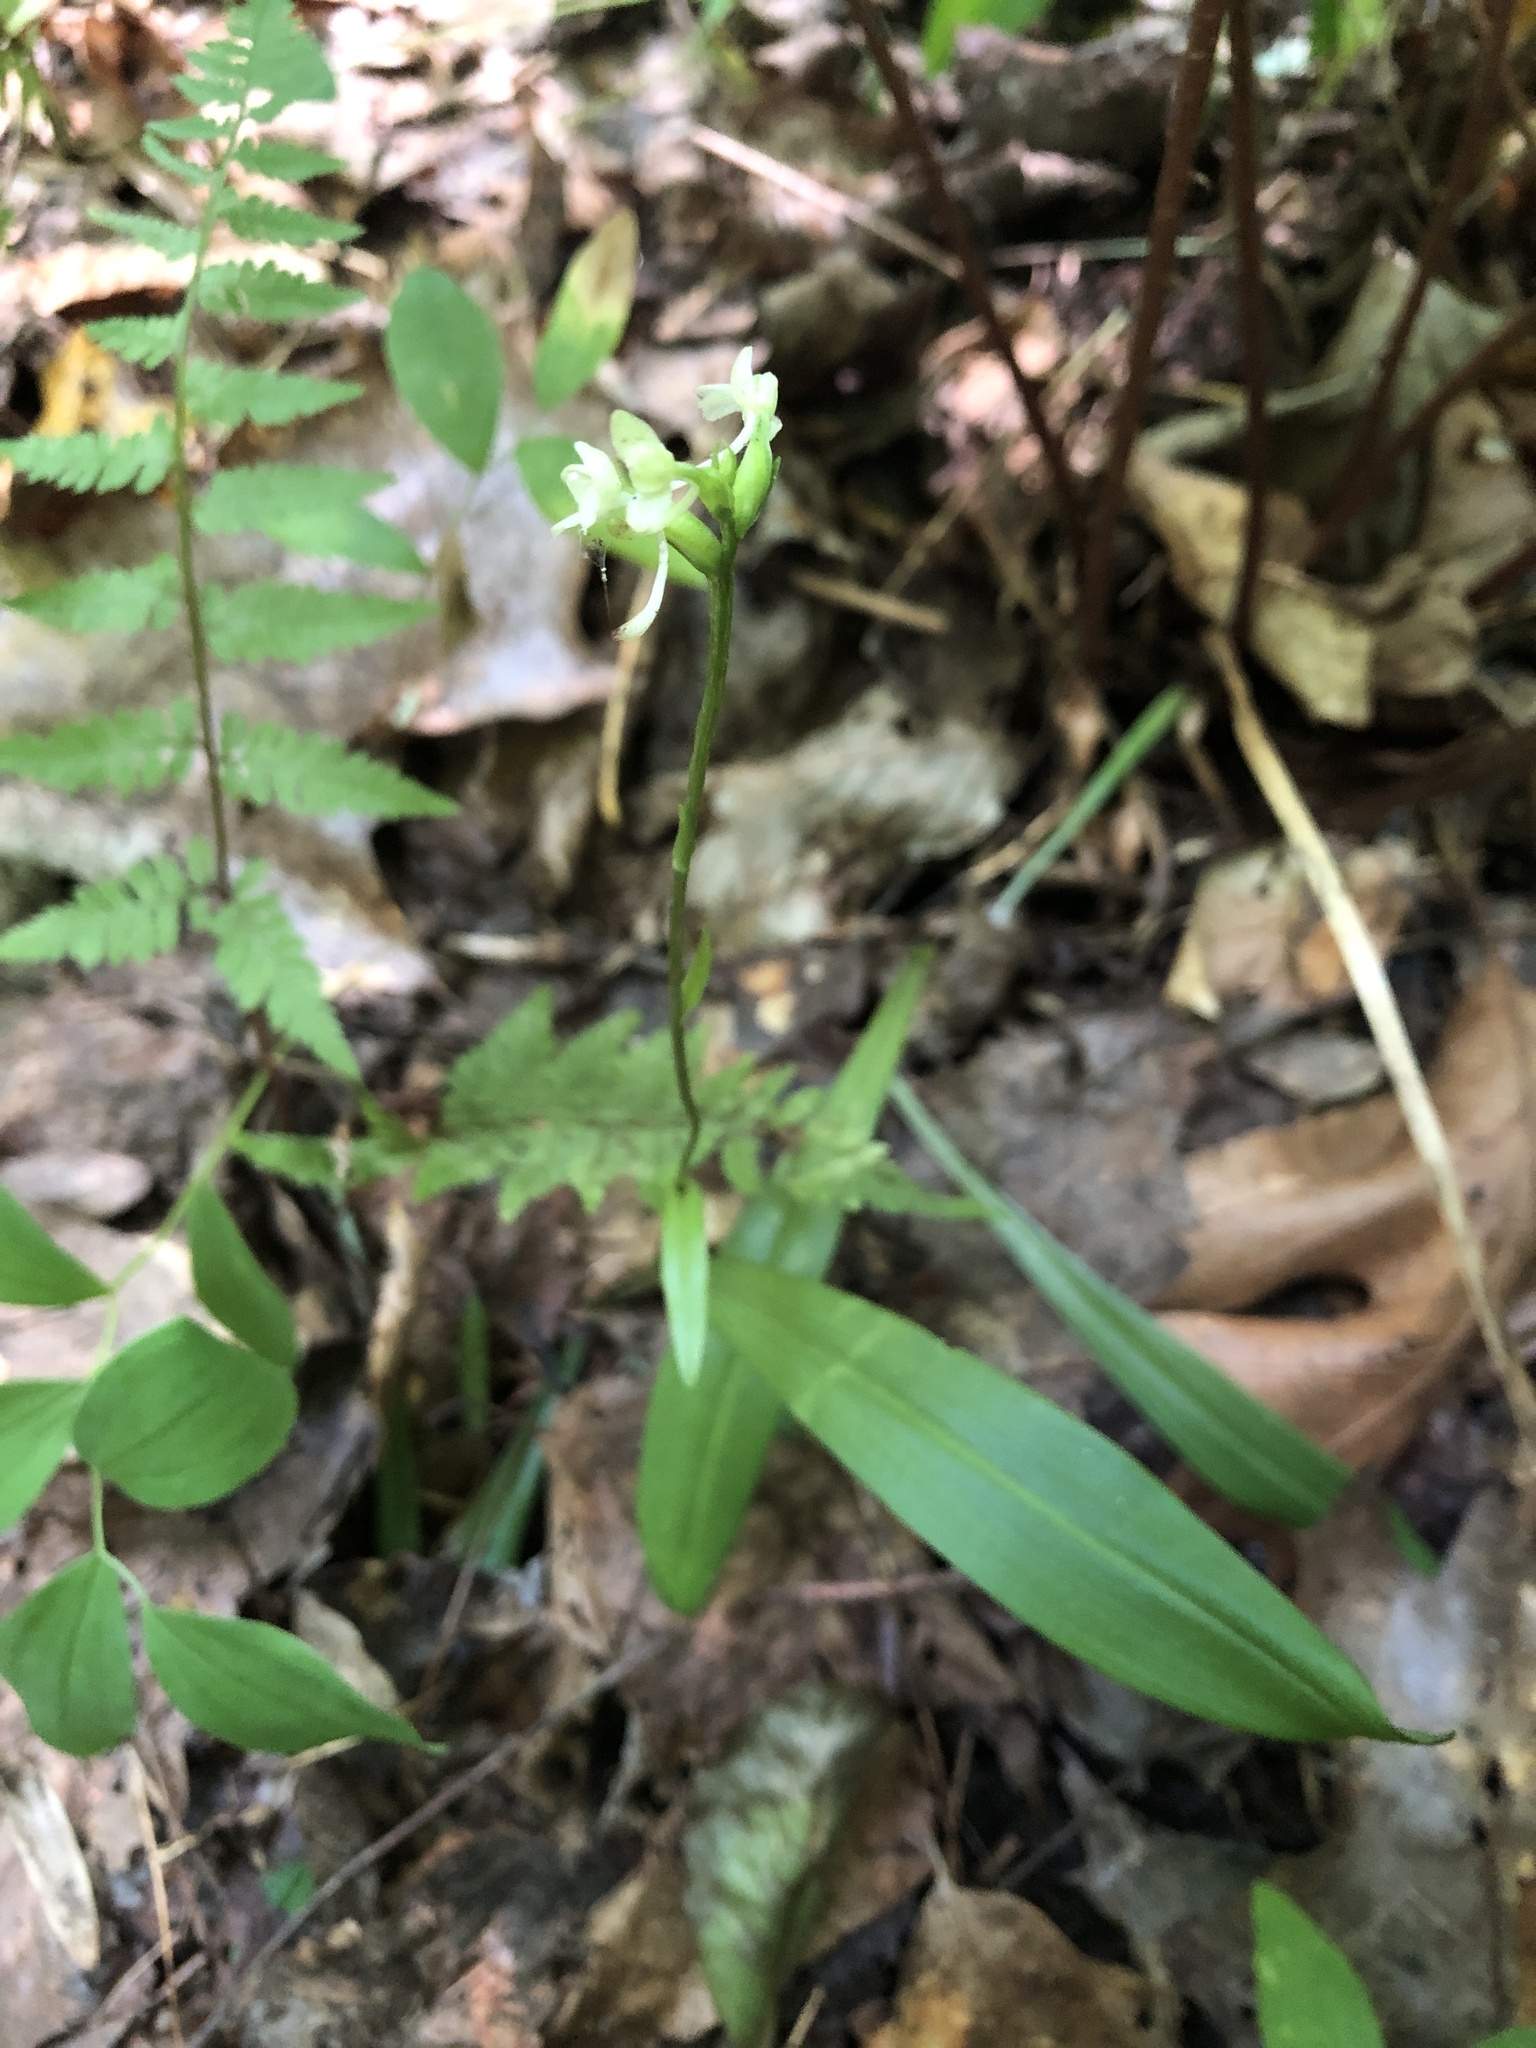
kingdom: Plantae
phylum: Tracheophyta
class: Liliopsida
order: Asparagales
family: Orchidaceae
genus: Platanthera
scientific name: Platanthera clavellata
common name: Club-spur orchid
